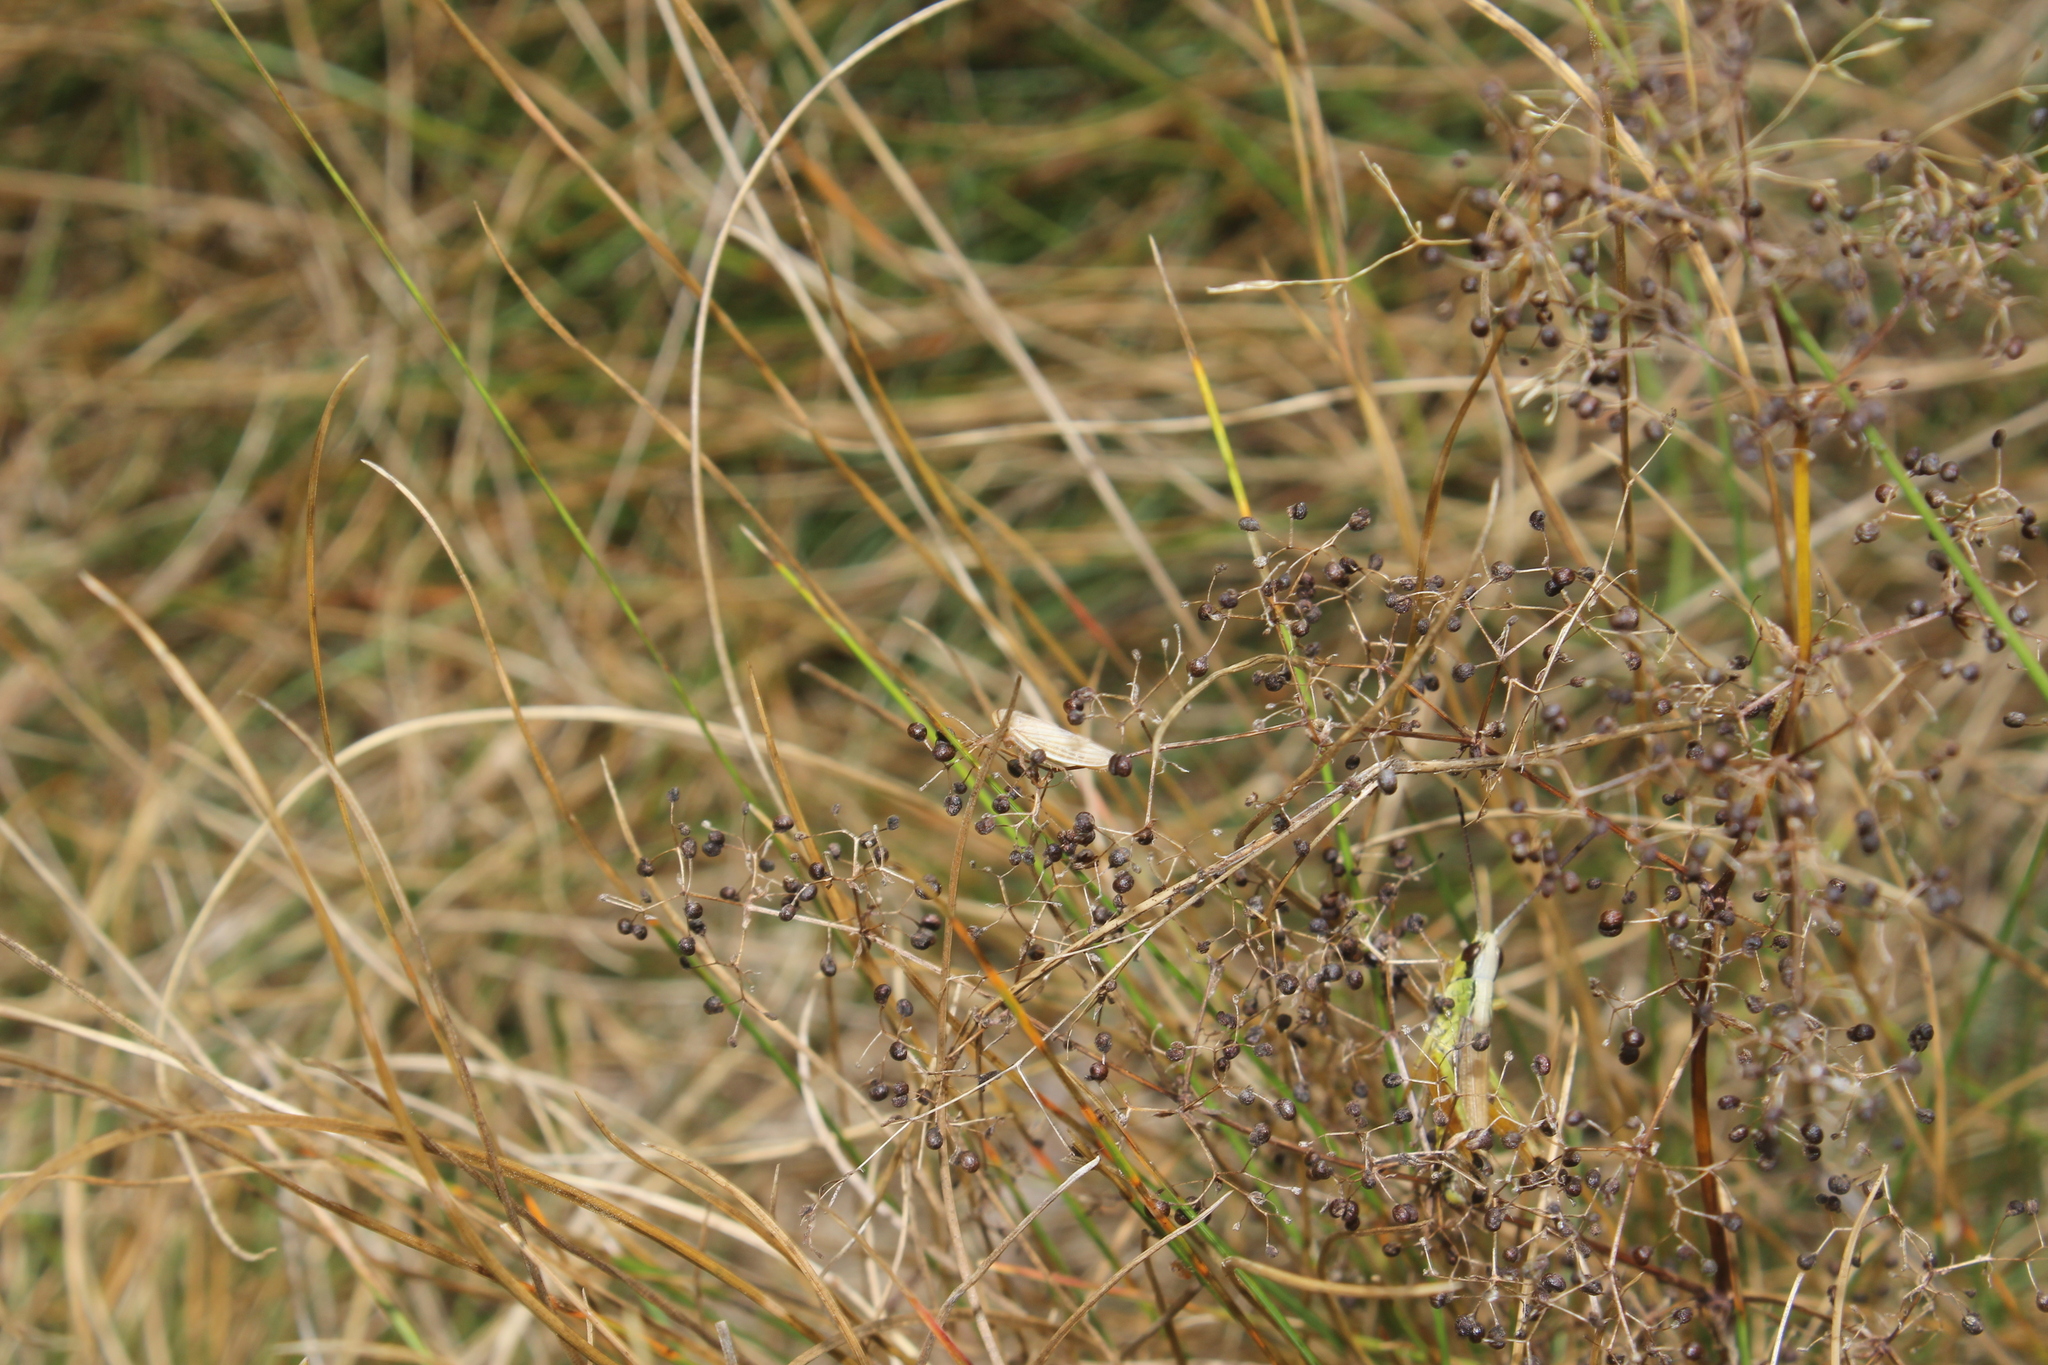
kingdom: Animalia
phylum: Arthropoda
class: Insecta
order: Hemiptera
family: Cicadellidae
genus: Athysanus
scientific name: Athysanus argentarius
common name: Silver leafhopper
